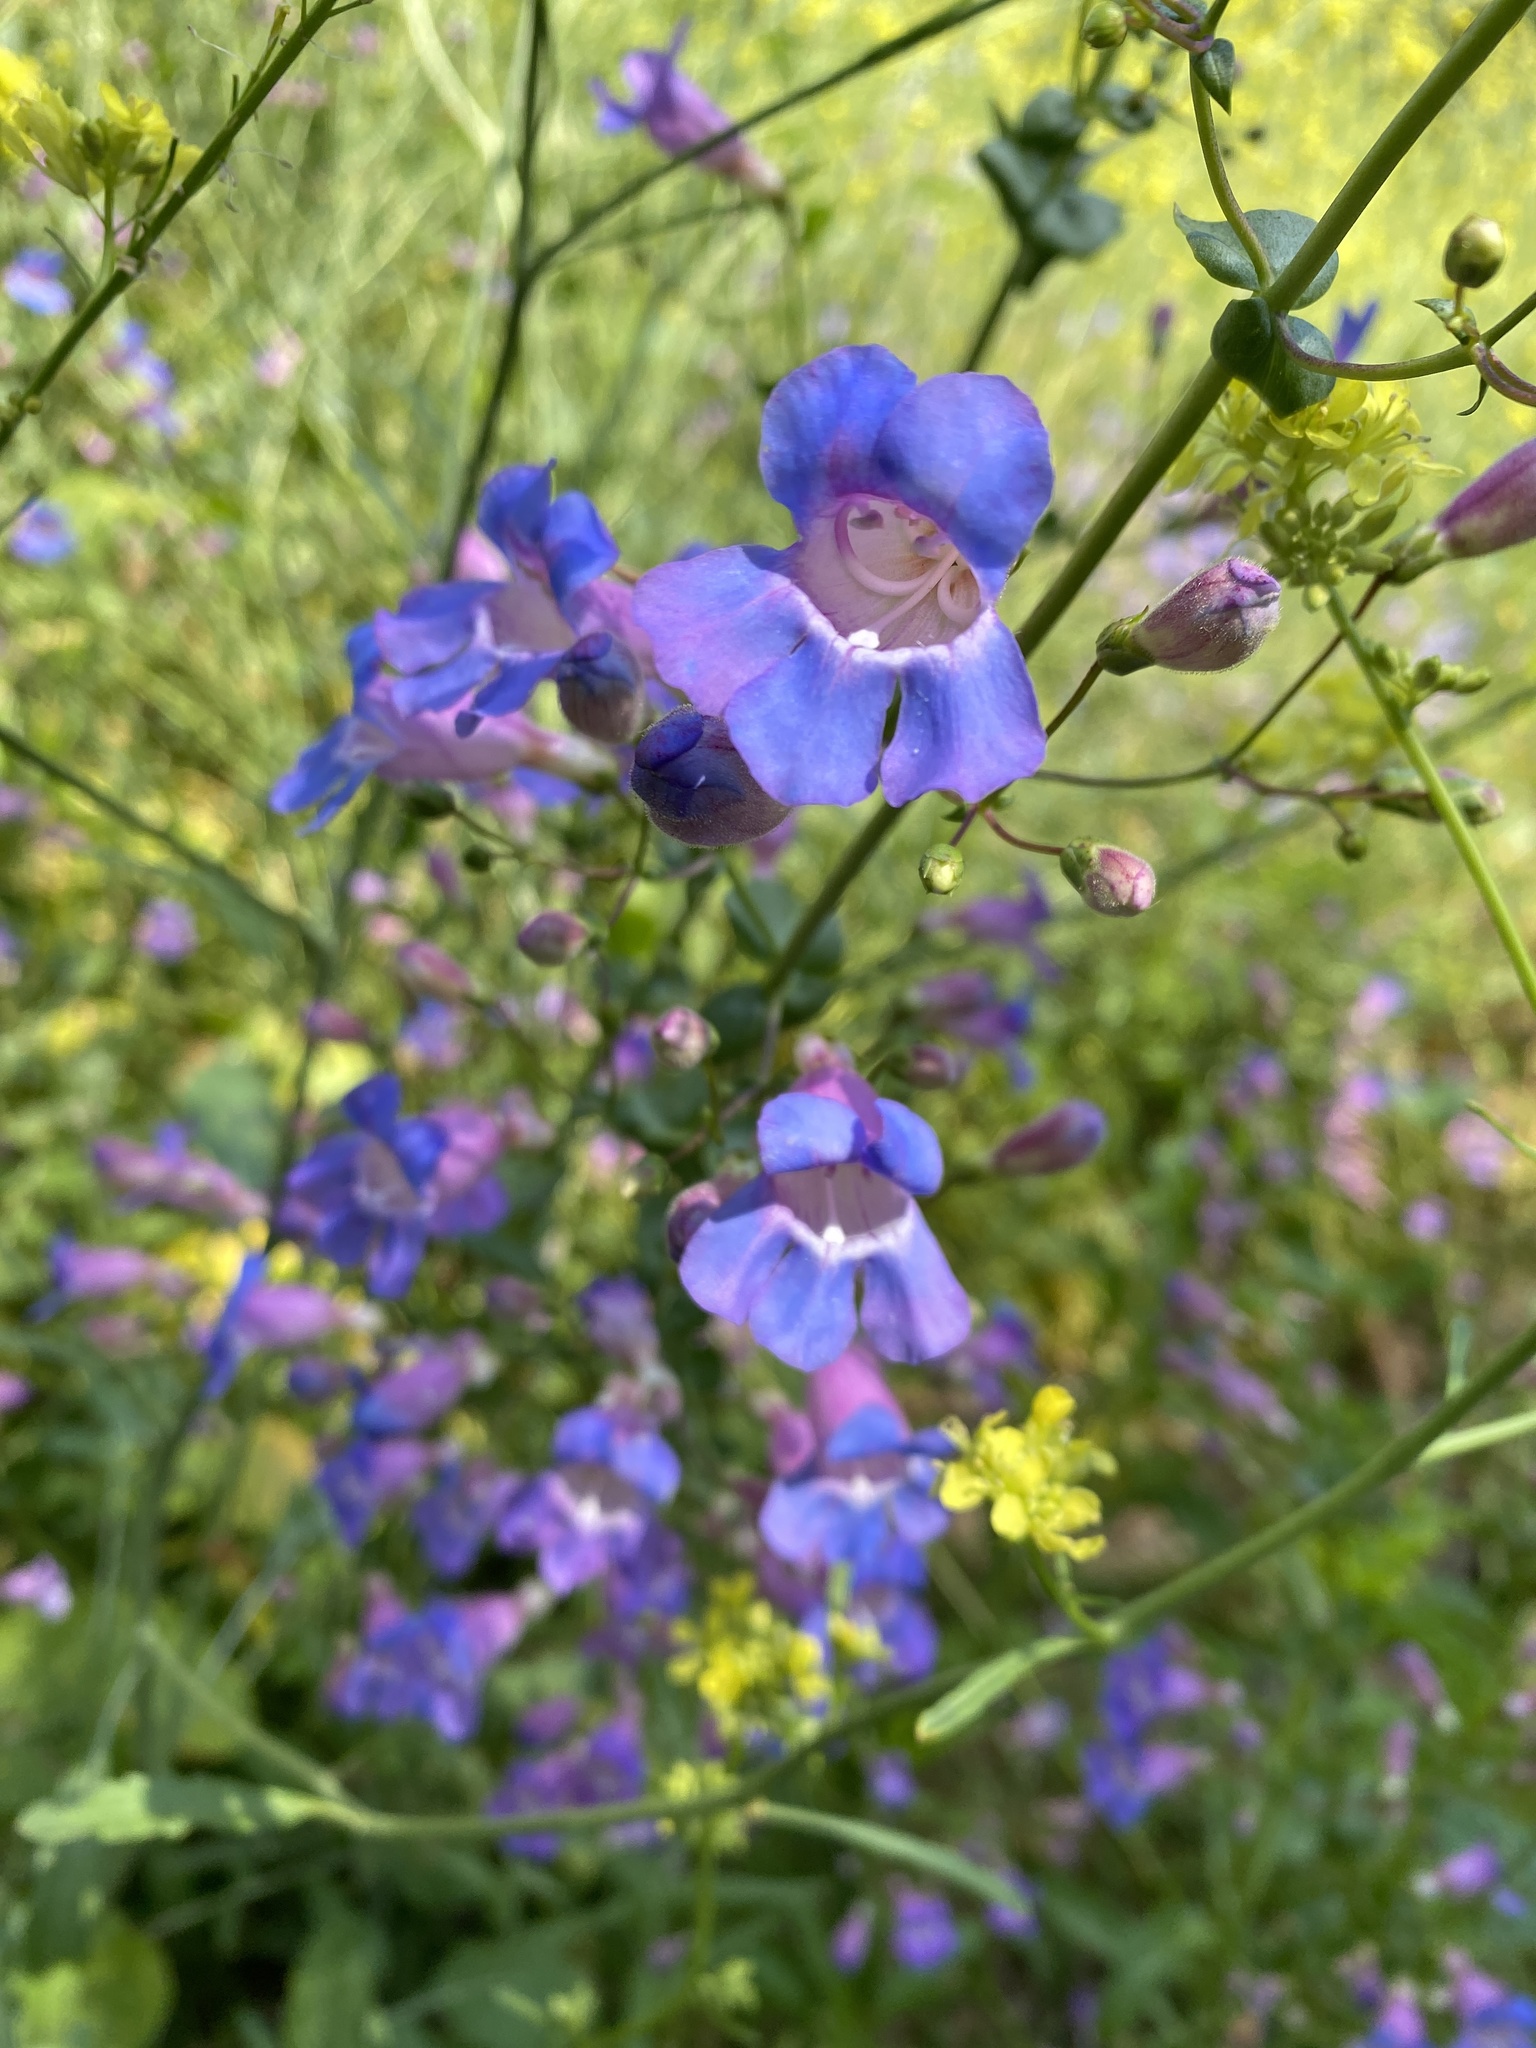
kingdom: Plantae
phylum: Tracheophyta
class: Magnoliopsida
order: Lamiales
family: Plantaginaceae
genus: Penstemon
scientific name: Penstemon spectabilis
